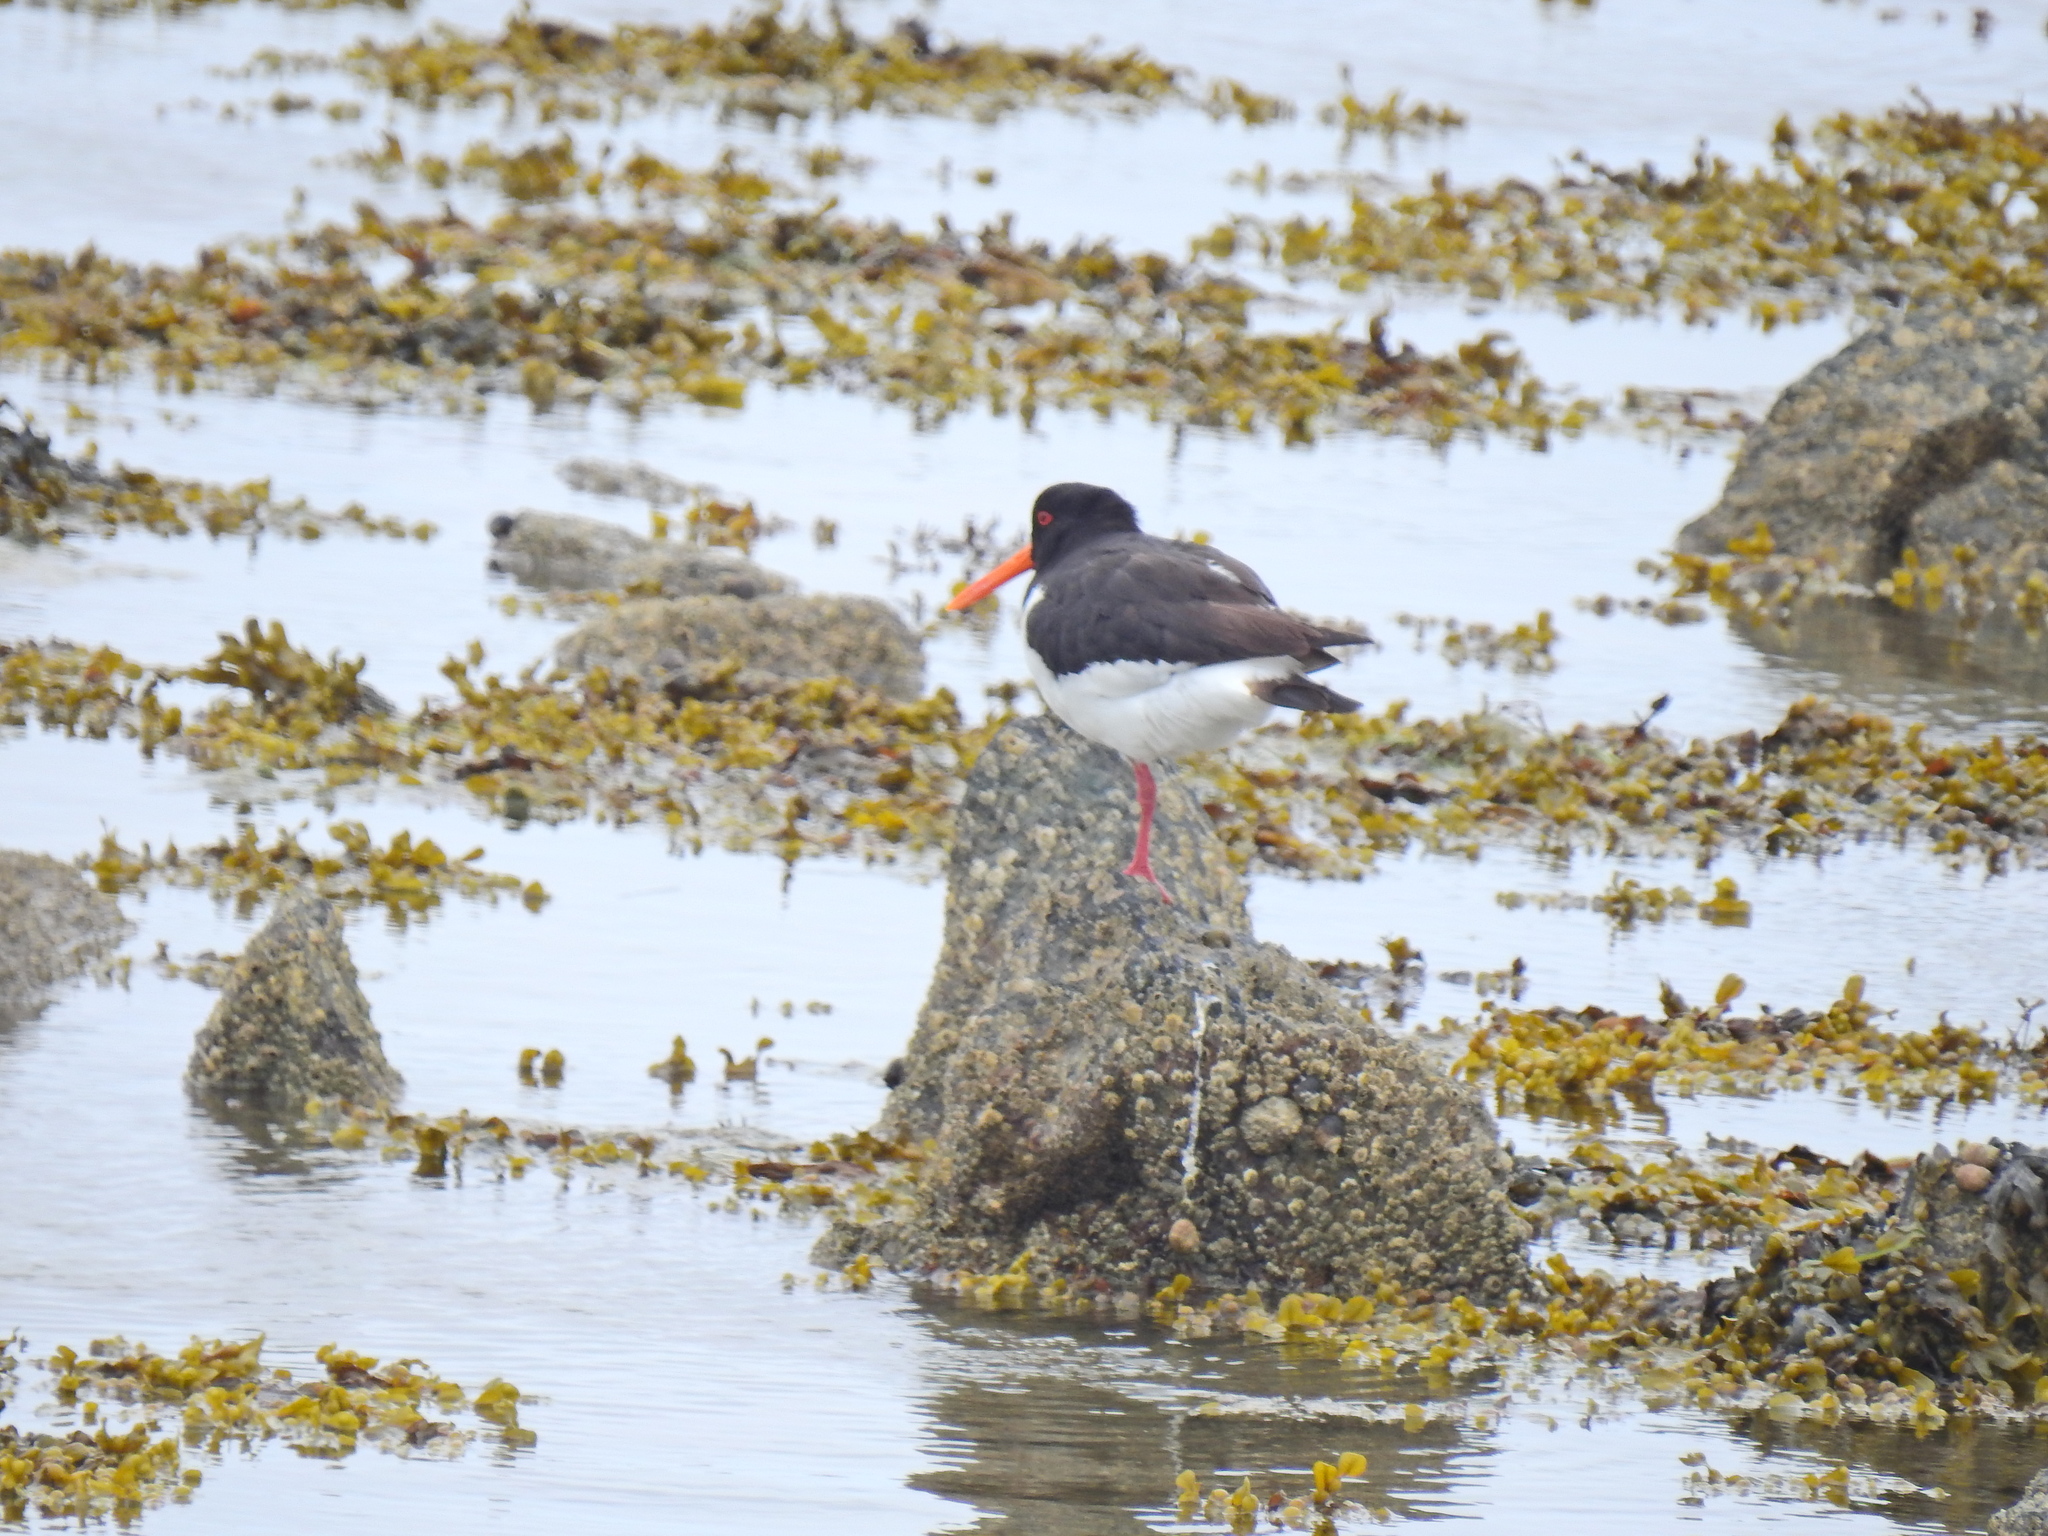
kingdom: Animalia
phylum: Chordata
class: Aves
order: Charadriiformes
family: Haematopodidae
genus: Haematopus
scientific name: Haematopus ostralegus
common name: Eurasian oystercatcher
